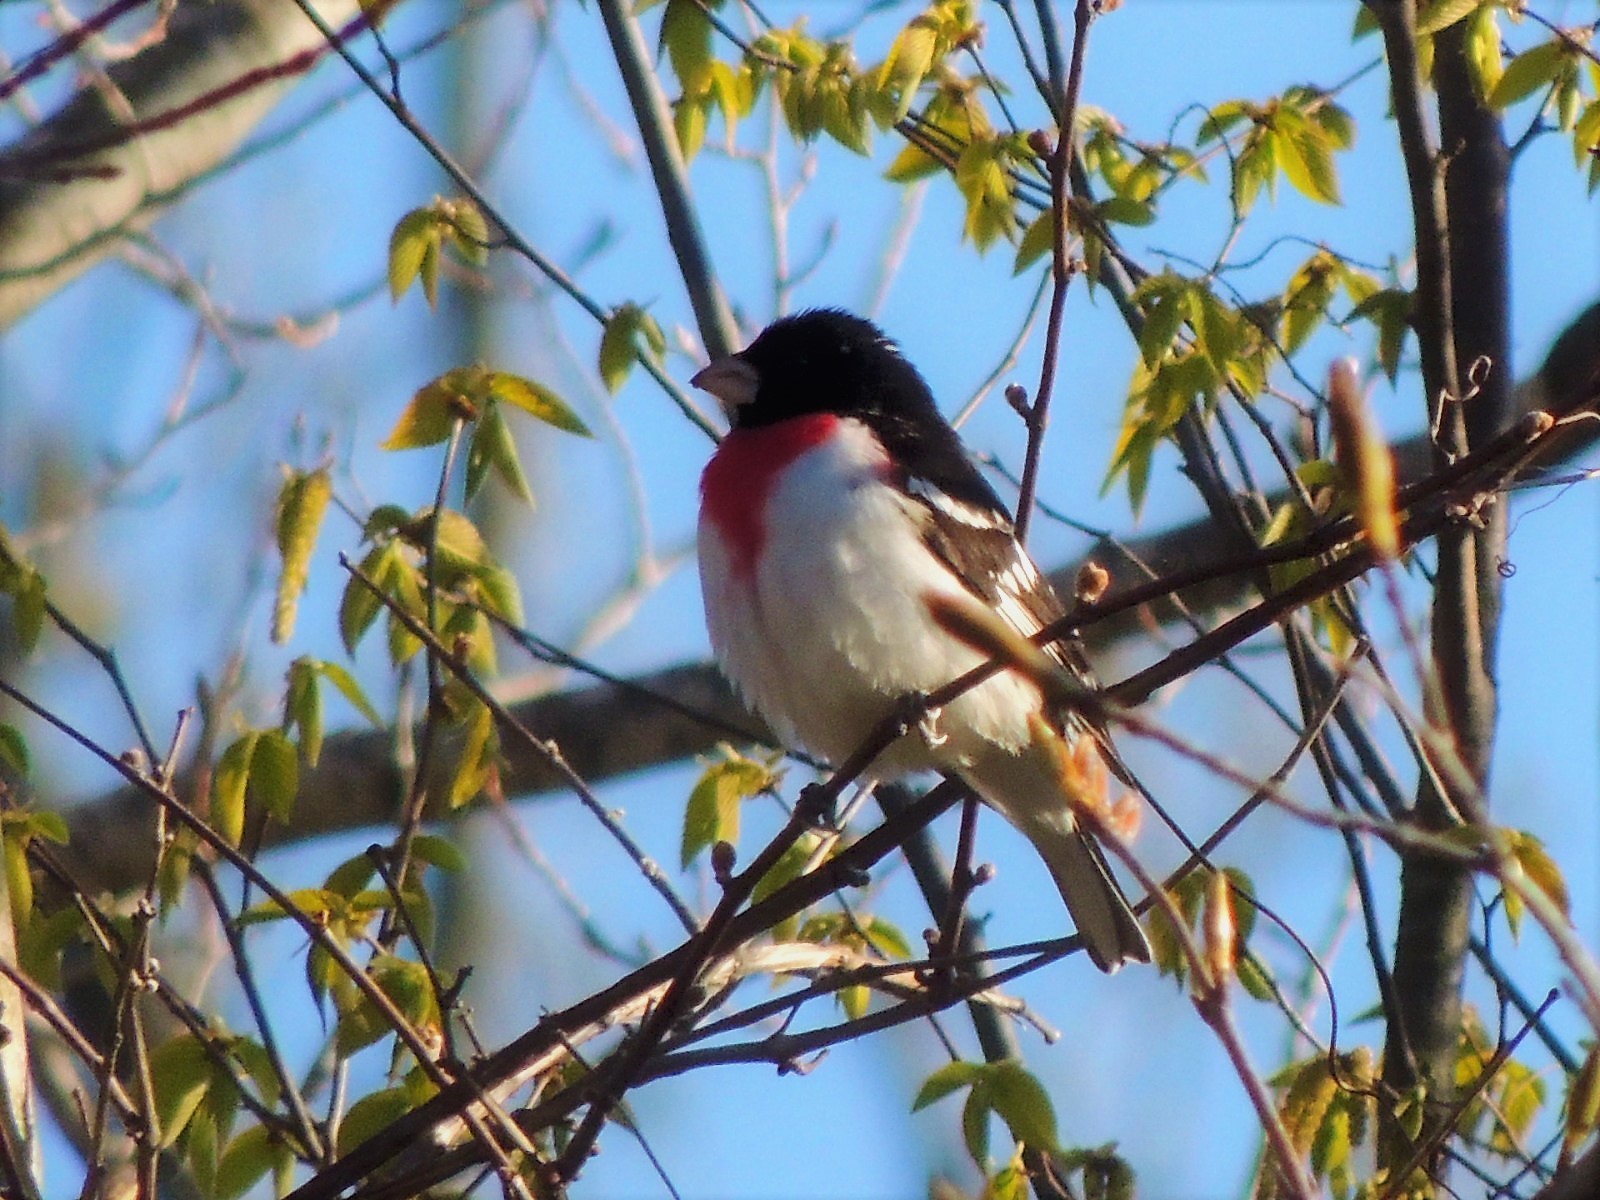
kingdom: Animalia
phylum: Chordata
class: Aves
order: Passeriformes
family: Cardinalidae
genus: Pheucticus
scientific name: Pheucticus ludovicianus
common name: Rose-breasted grosbeak
